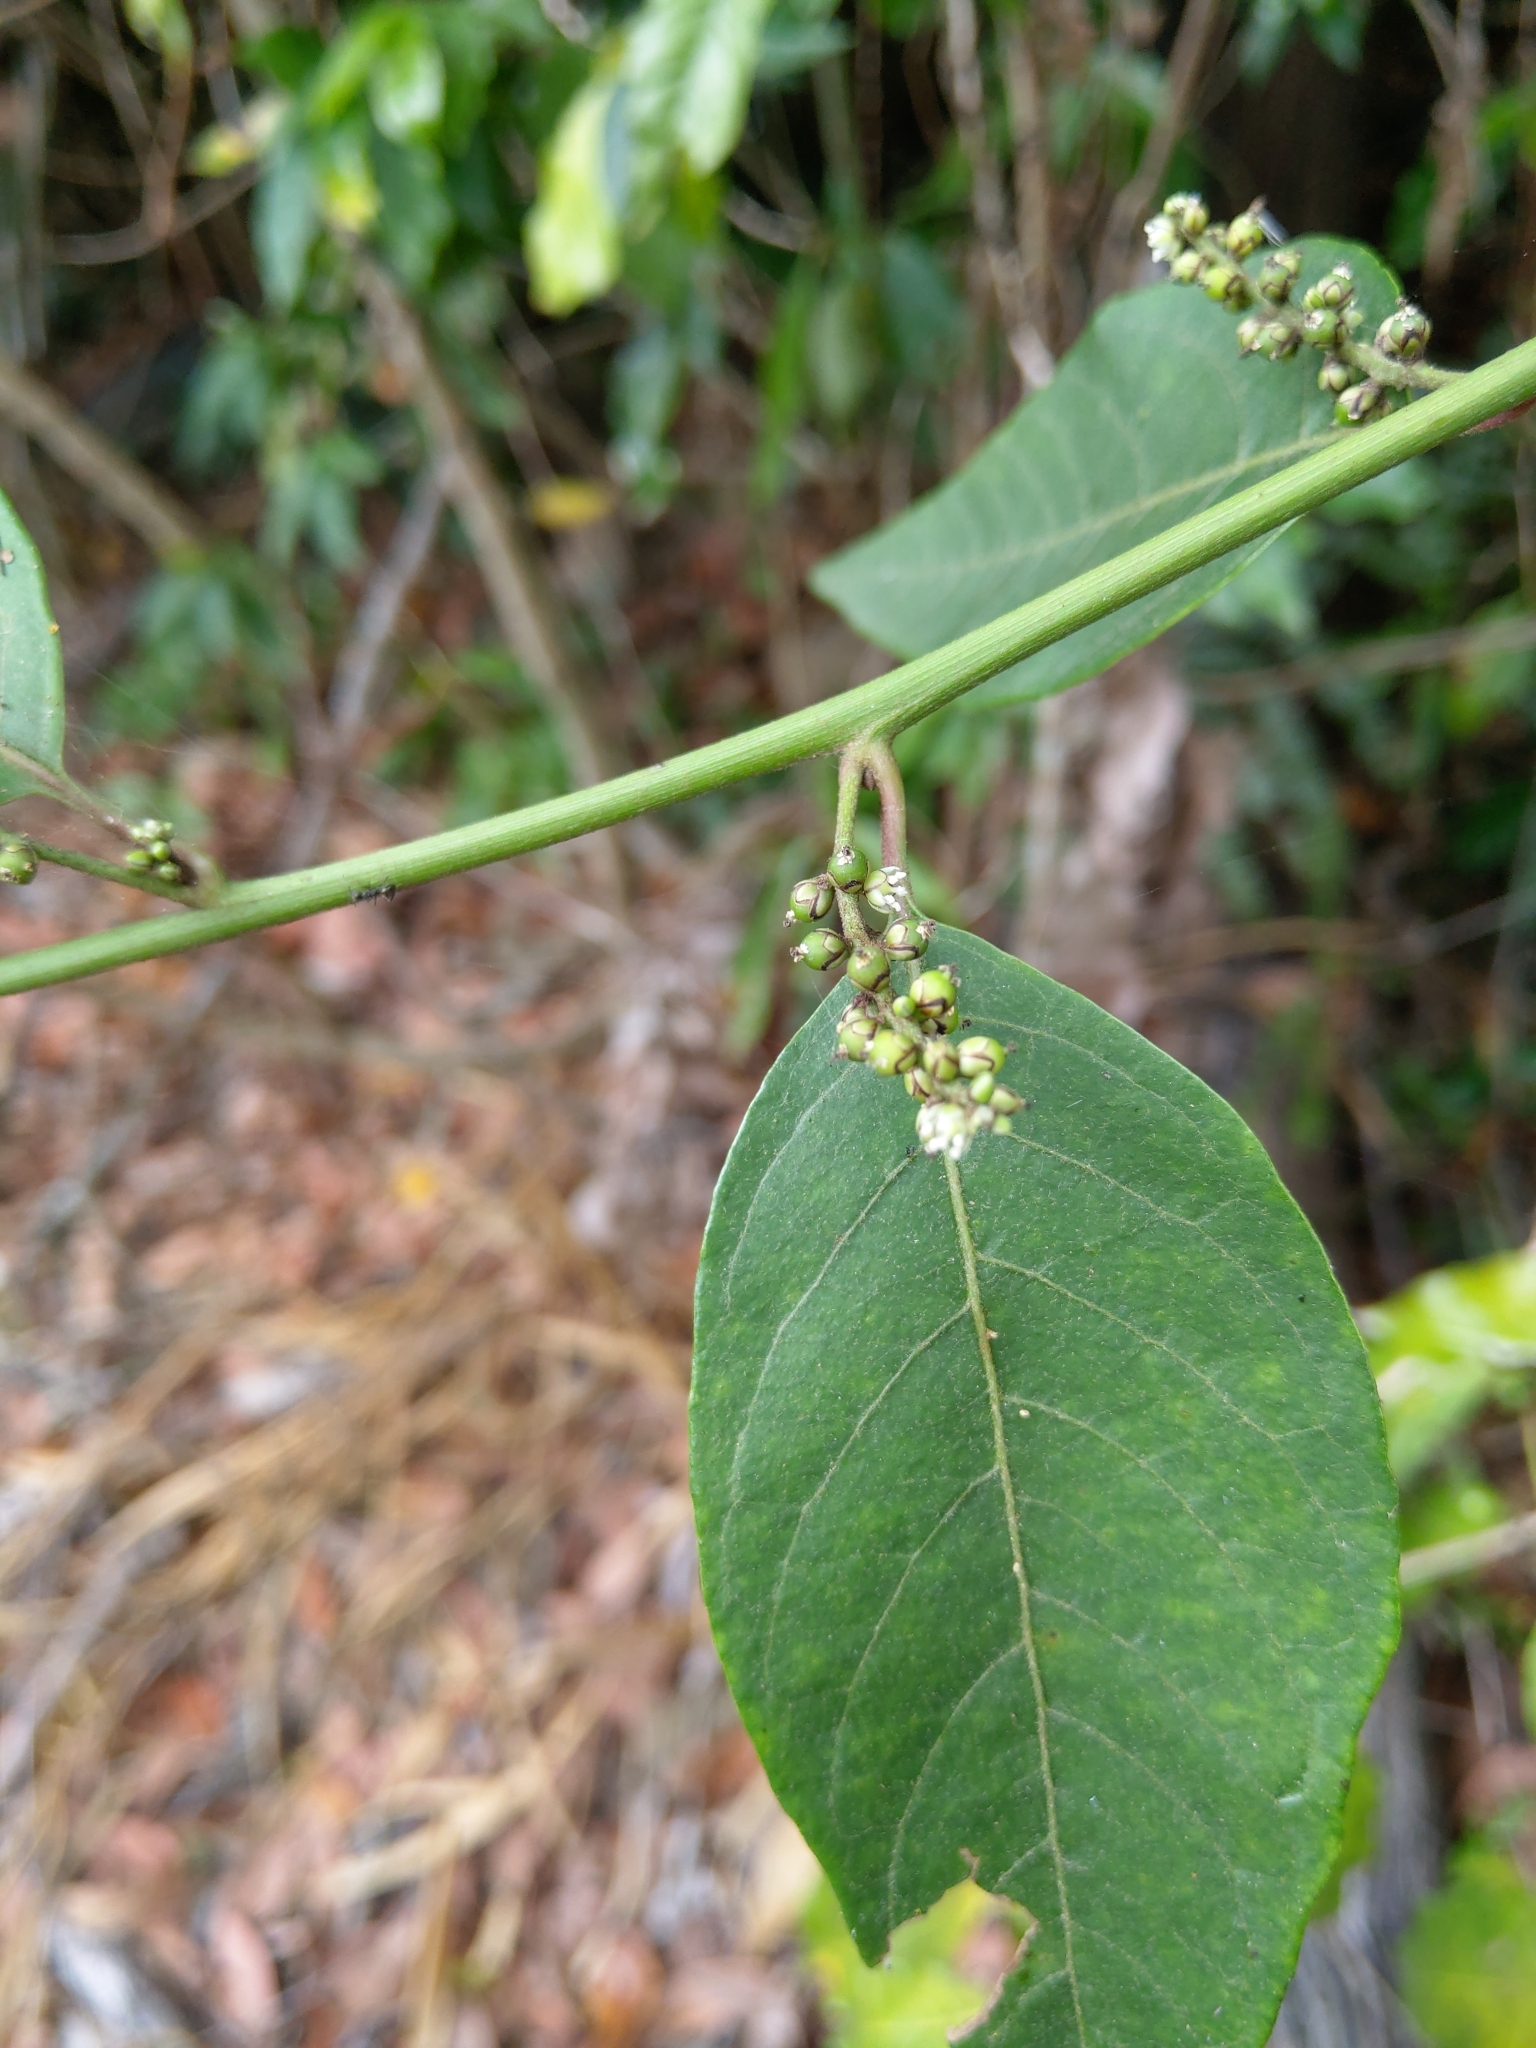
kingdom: Plantae
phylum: Tracheophyta
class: Magnoliopsida
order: Caryophyllales
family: Amaranthaceae
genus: Deeringia
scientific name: Deeringia polysperma
